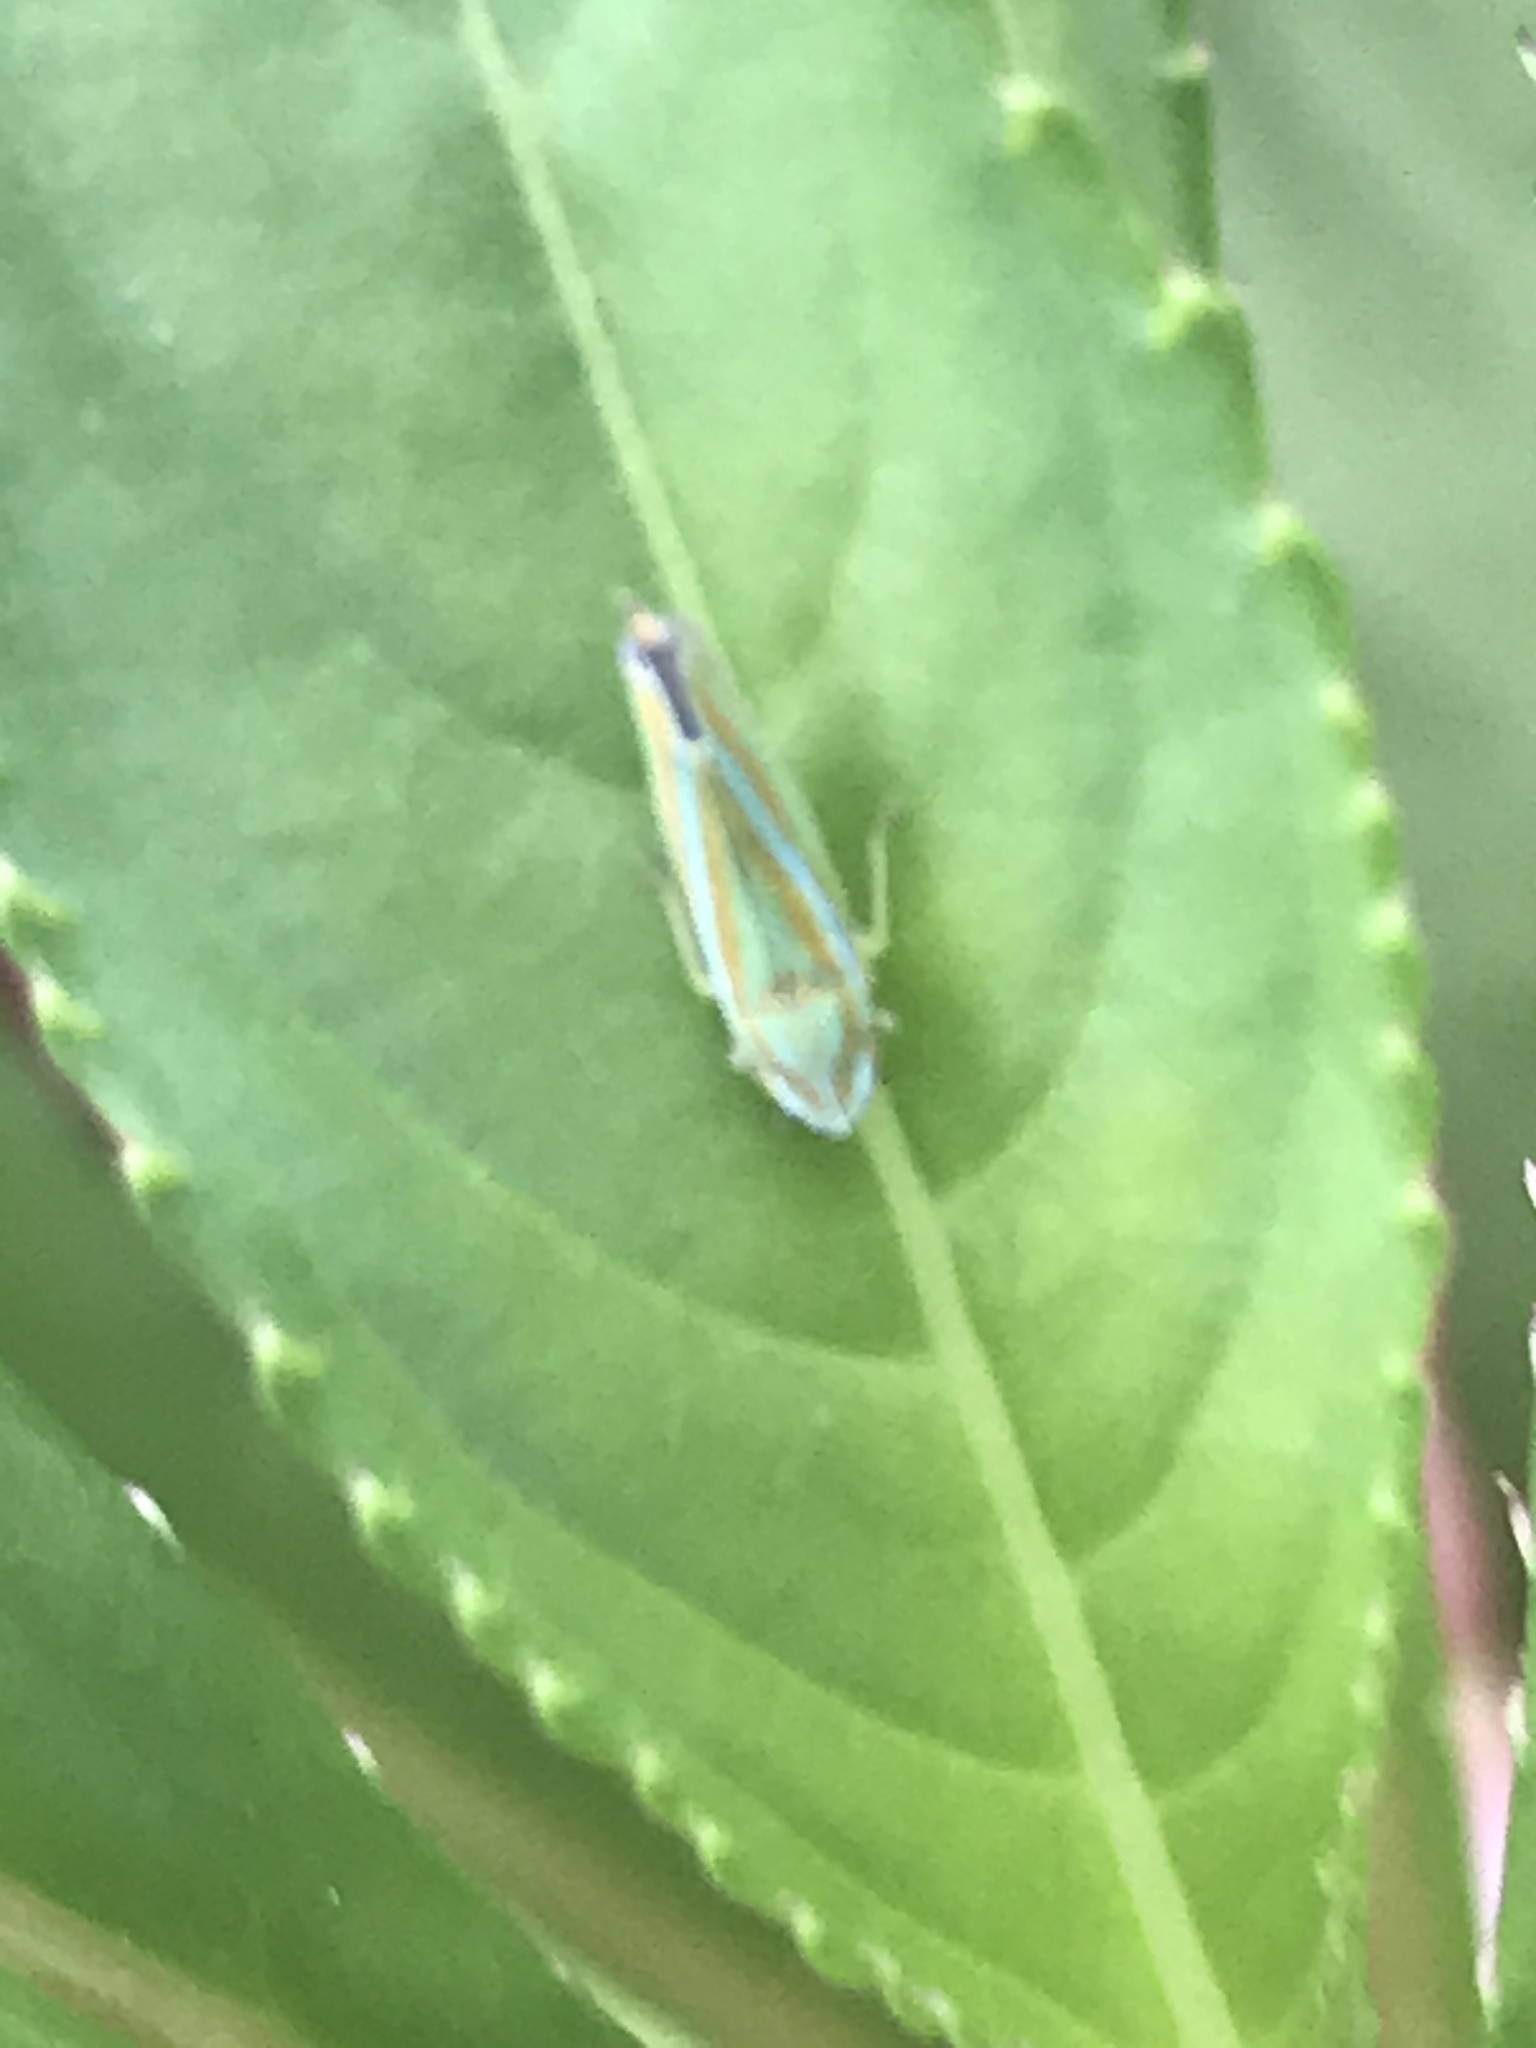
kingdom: Animalia
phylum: Arthropoda
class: Insecta
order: Hemiptera
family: Cicadellidae
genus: Graphocephala
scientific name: Graphocephala versuta
